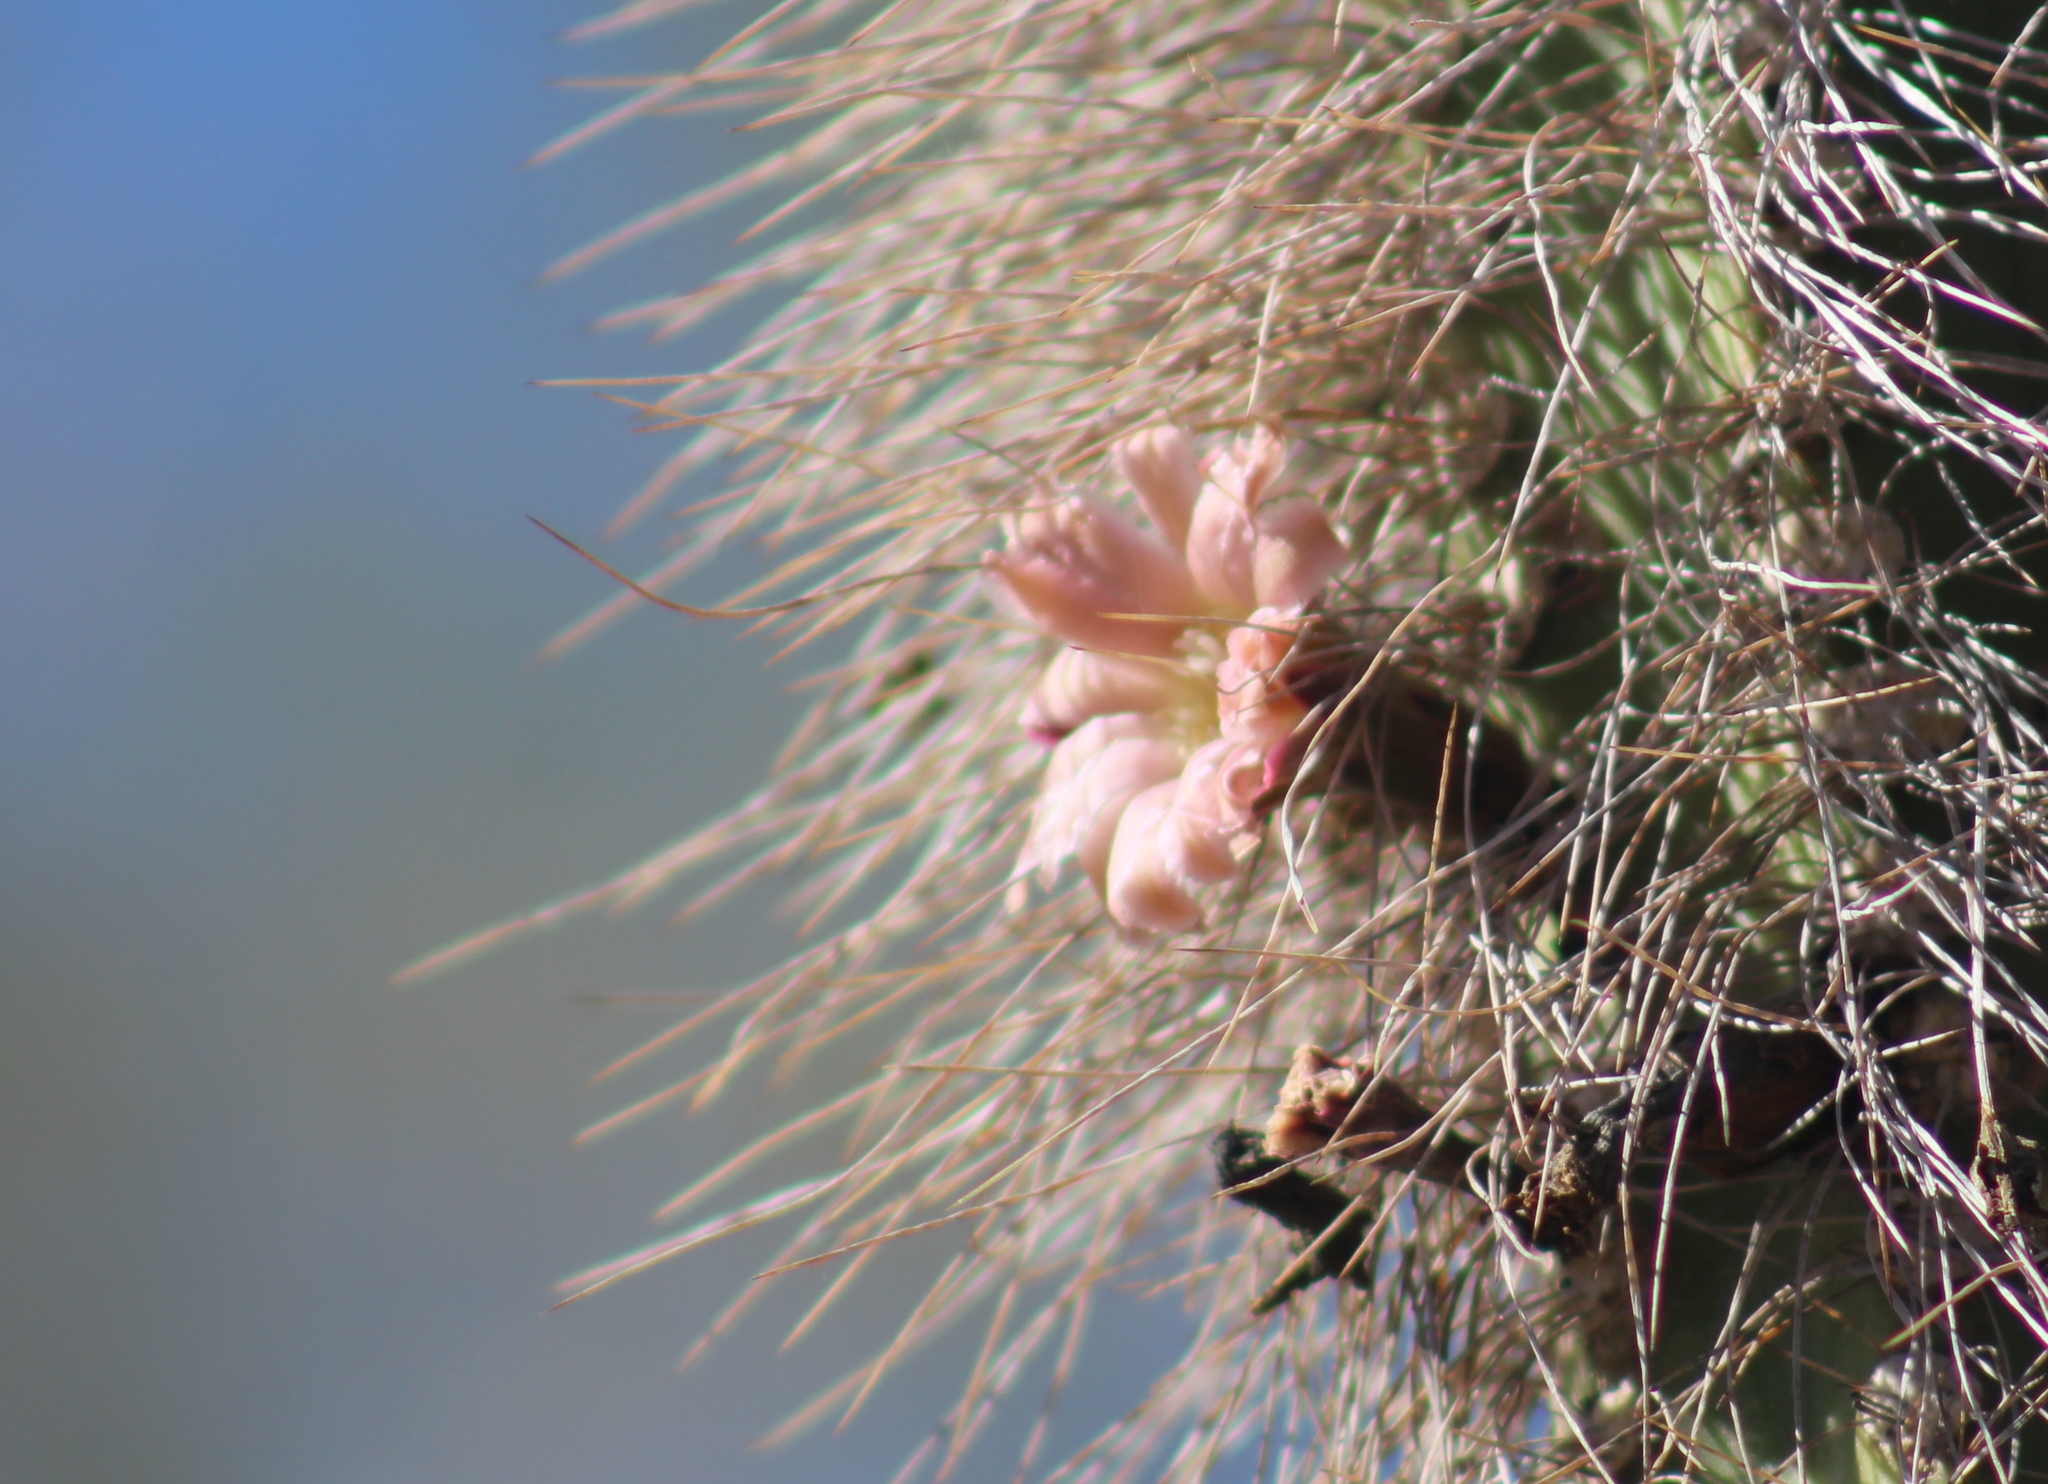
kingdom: Plantae
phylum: Tracheophyta
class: Magnoliopsida
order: Caryophyllales
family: Cactaceae
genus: Pachycereus
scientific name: Pachycereus schottii
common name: Senita cactus
